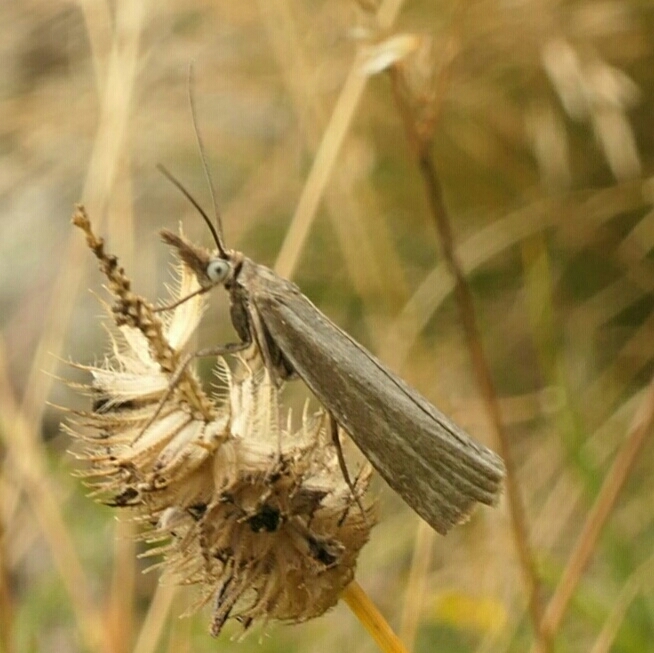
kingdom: Animalia
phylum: Arthropoda
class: Insecta
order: Lepidoptera
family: Crambidae
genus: Crambus
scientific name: Crambus perlellus
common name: Yellow satin veneer
